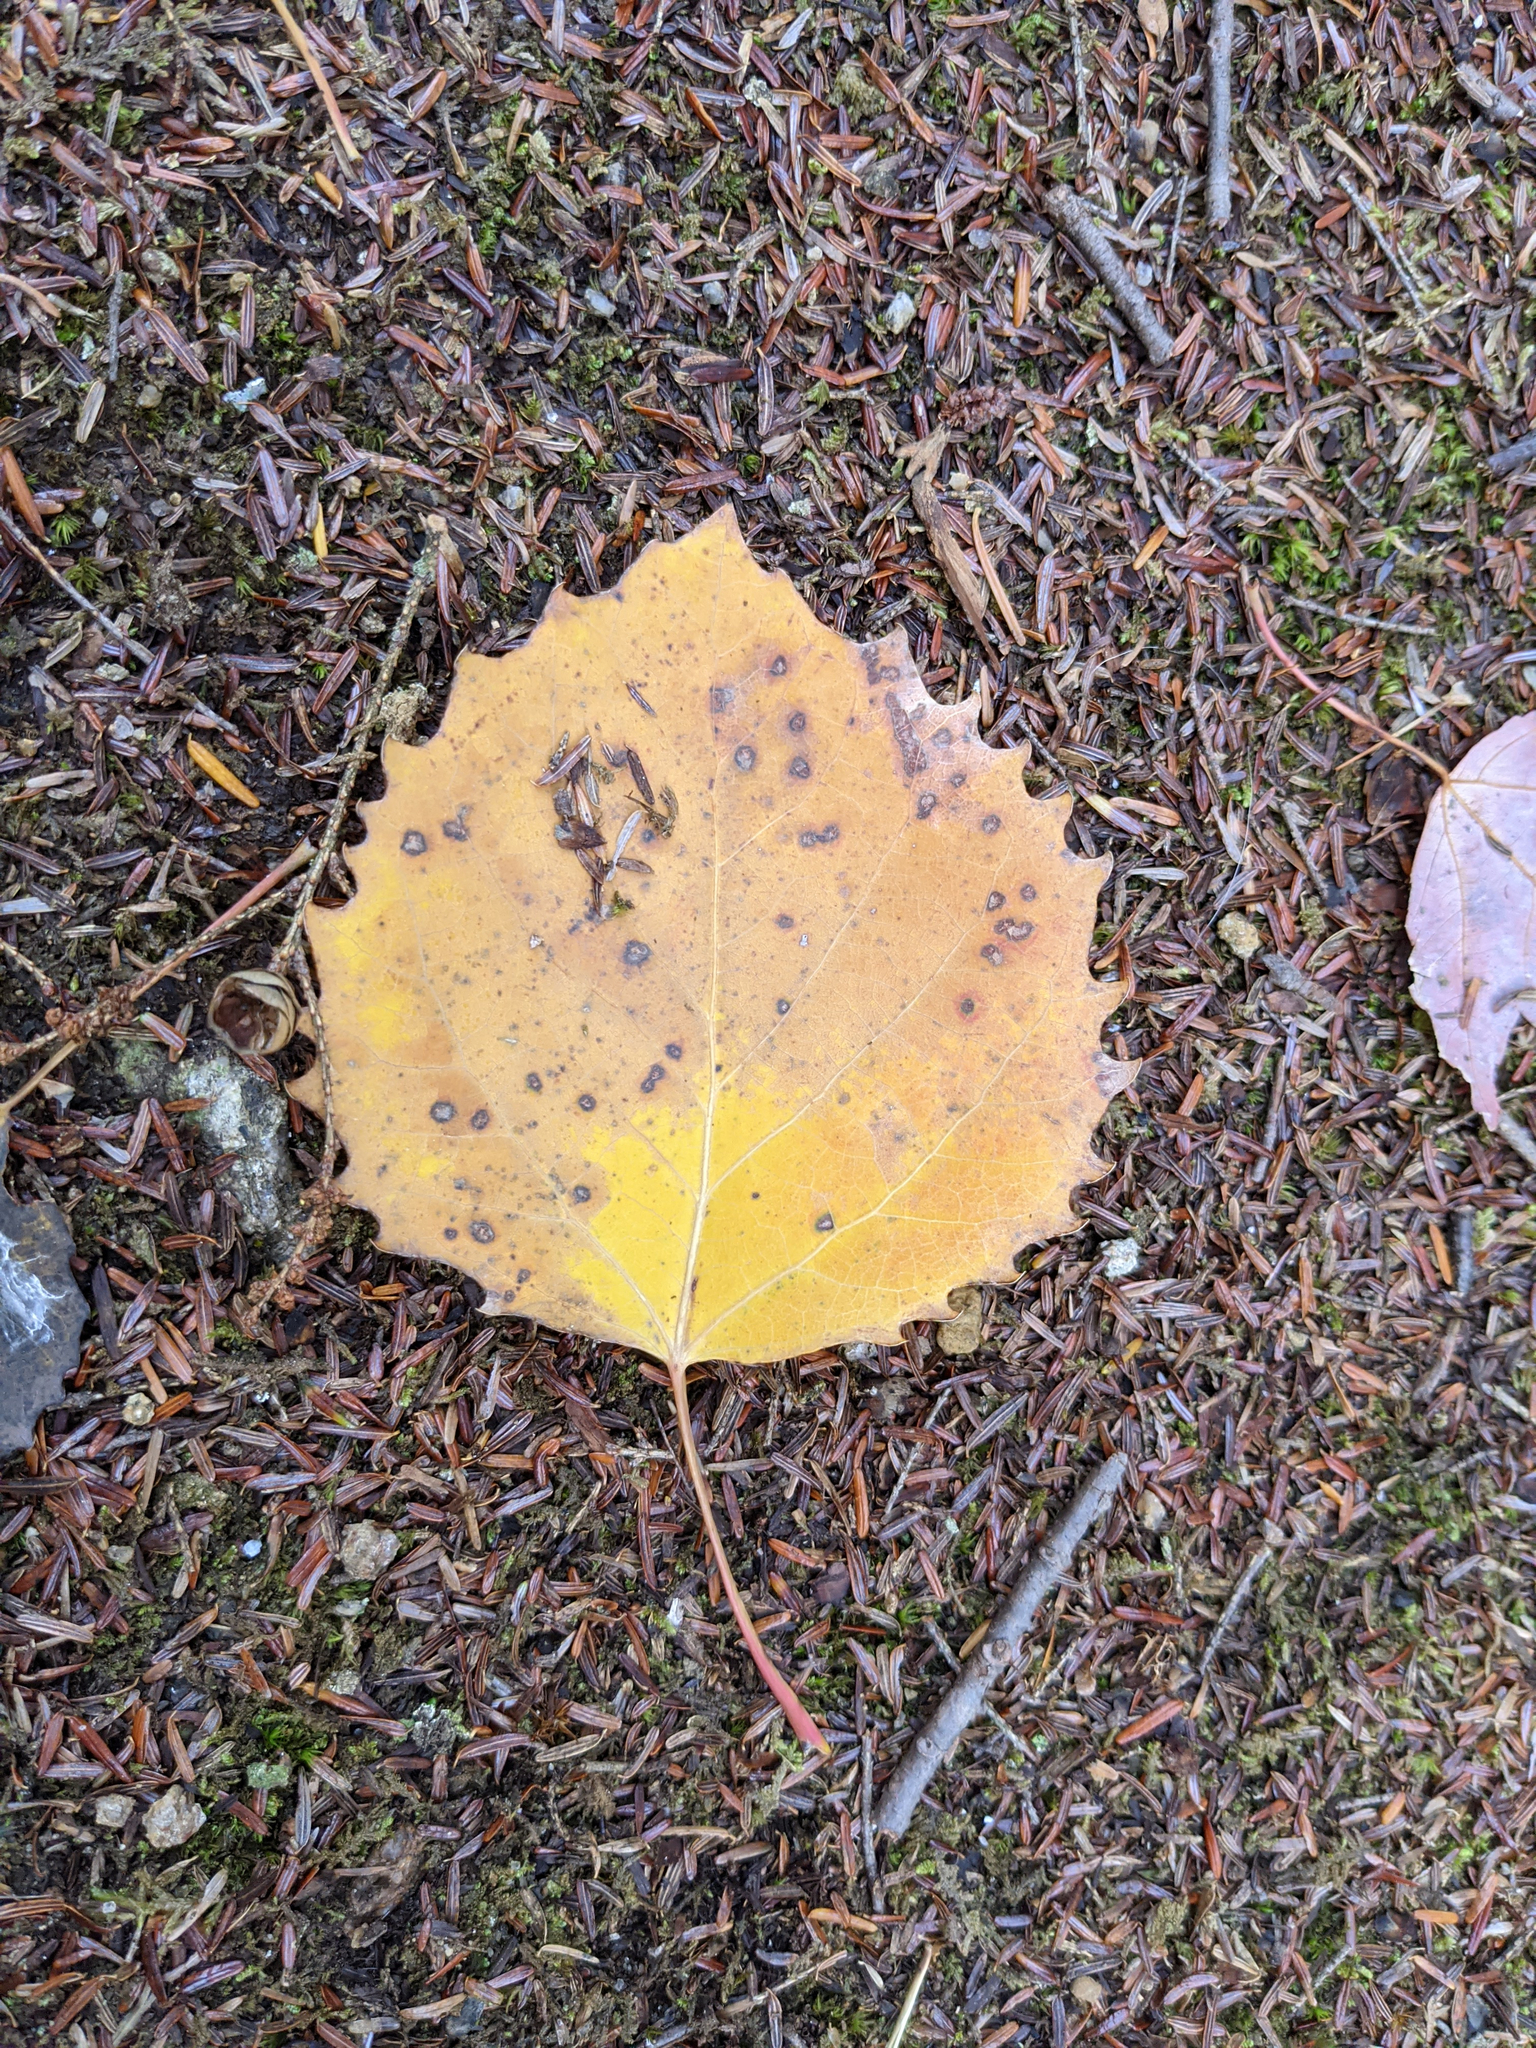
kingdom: Plantae
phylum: Tracheophyta
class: Magnoliopsida
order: Malpighiales
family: Salicaceae
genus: Populus
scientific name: Populus grandidentata
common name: Bigtooth aspen
